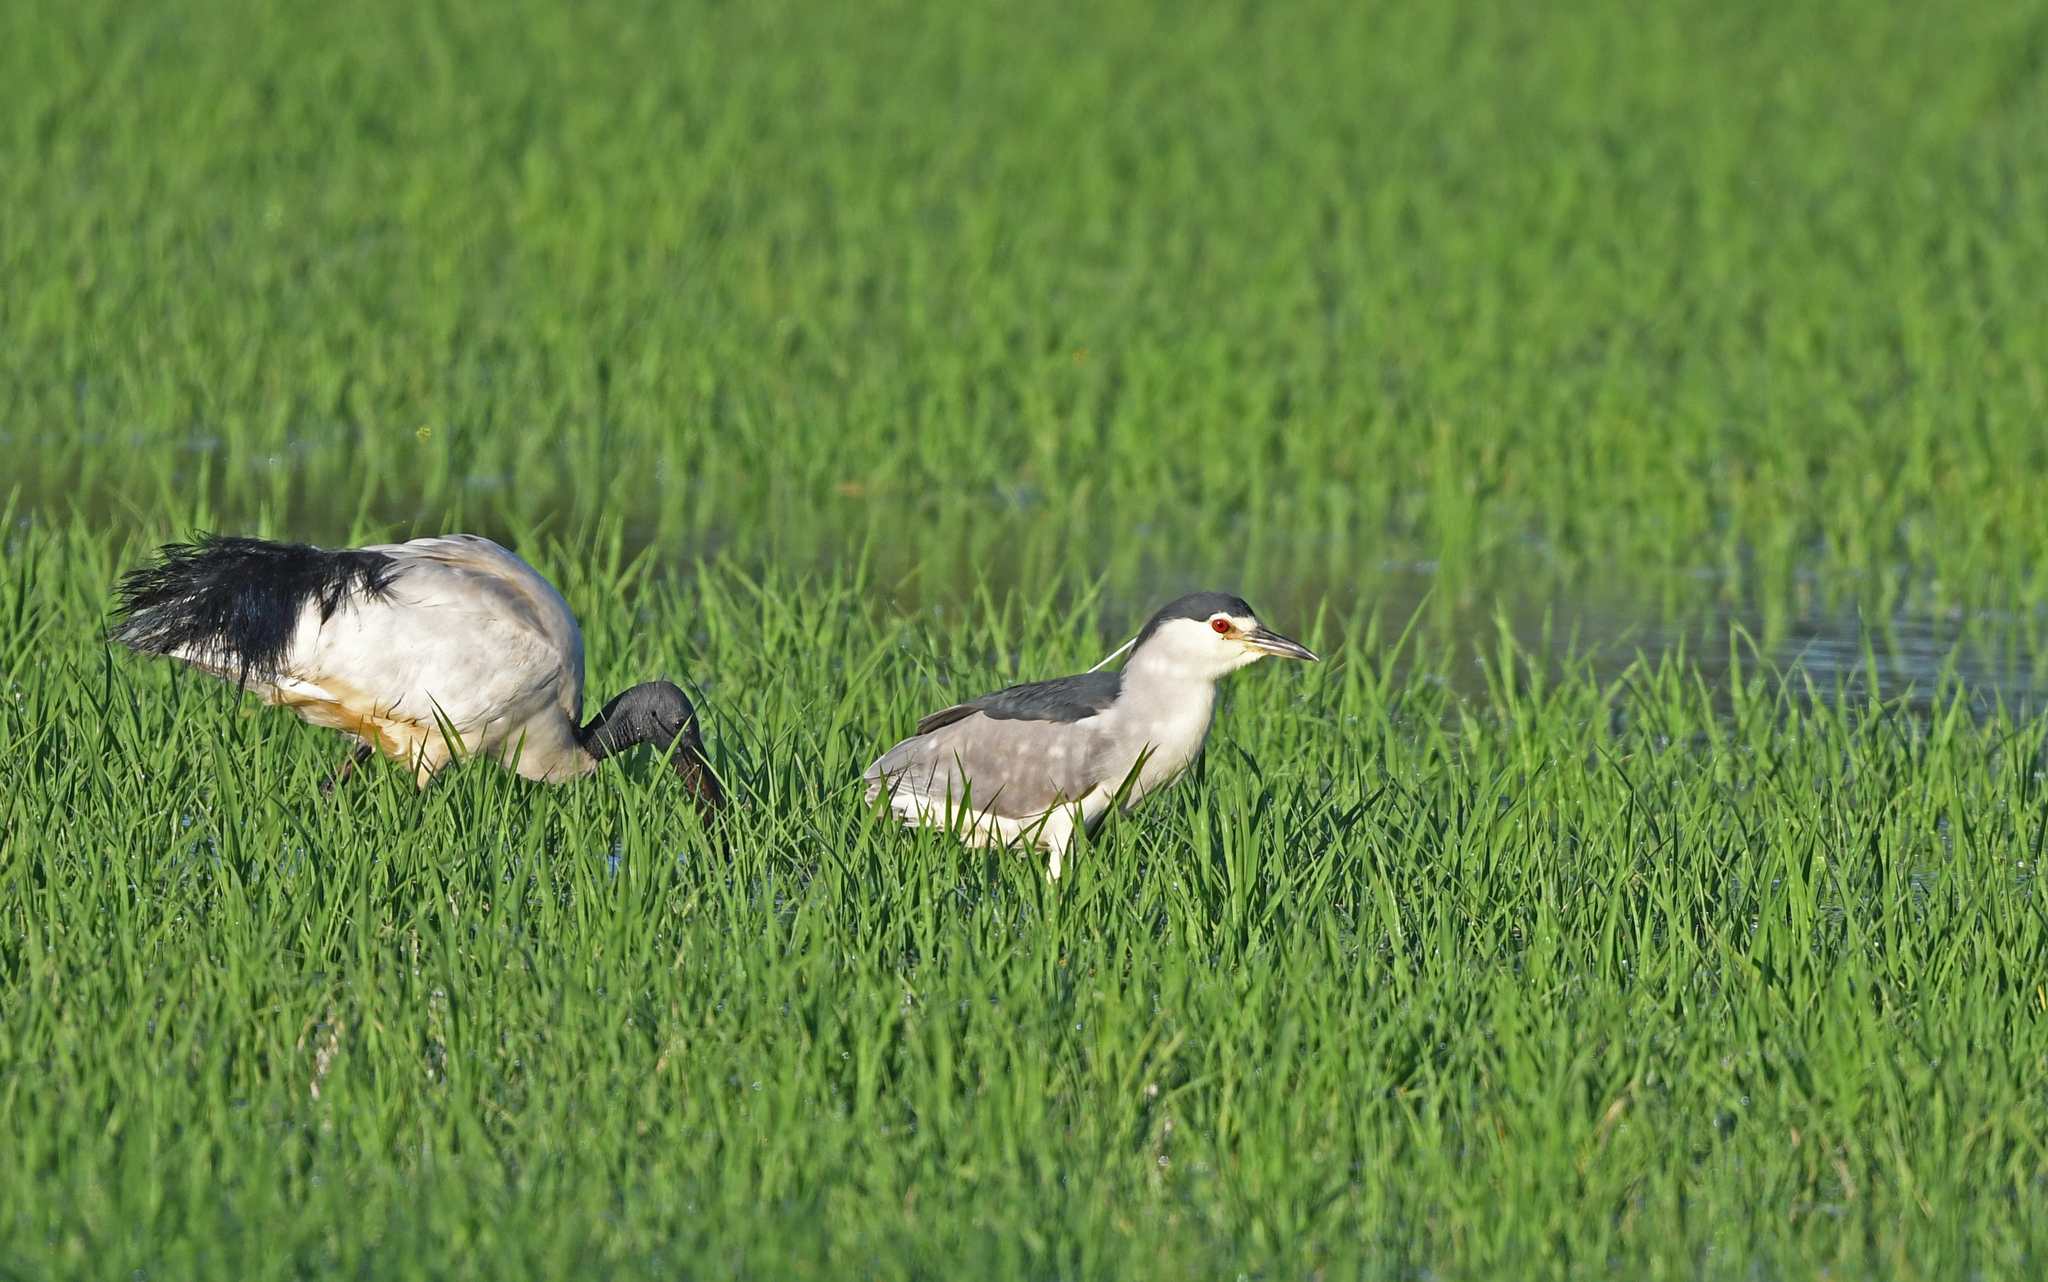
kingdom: Animalia
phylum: Chordata
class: Aves
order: Pelecaniformes
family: Ardeidae
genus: Nycticorax
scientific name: Nycticorax nycticorax
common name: Black-crowned night heron
